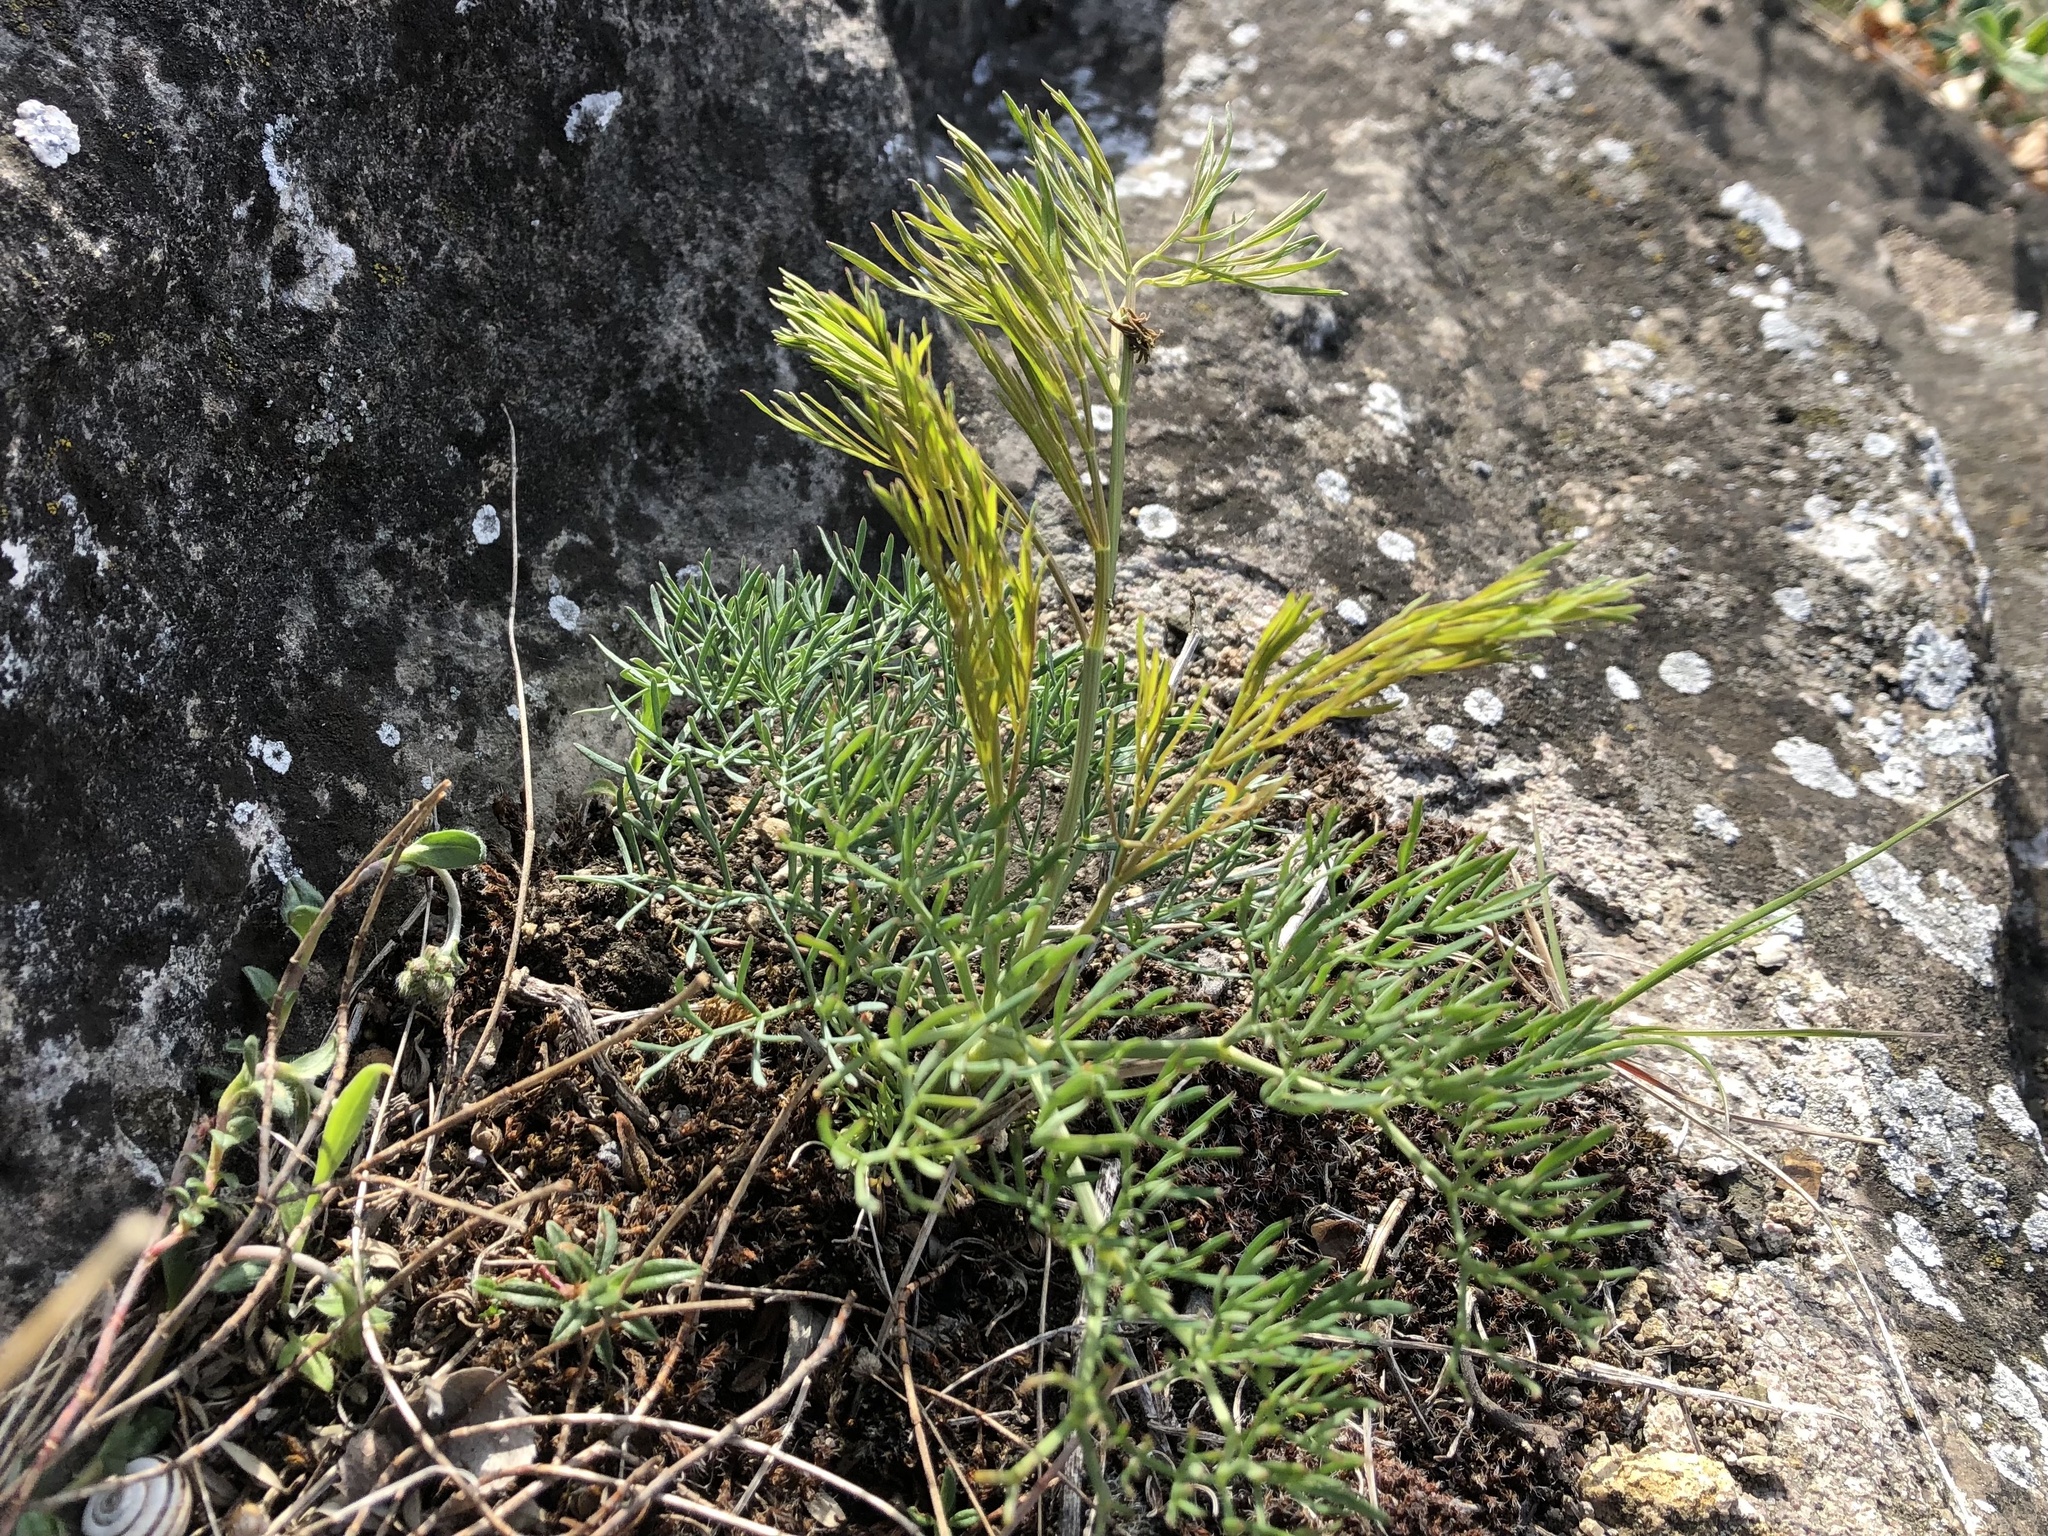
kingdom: Plantae
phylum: Tracheophyta
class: Magnoliopsida
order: Apiales
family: Apiaceae
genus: Seseli
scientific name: Seseli osseum
